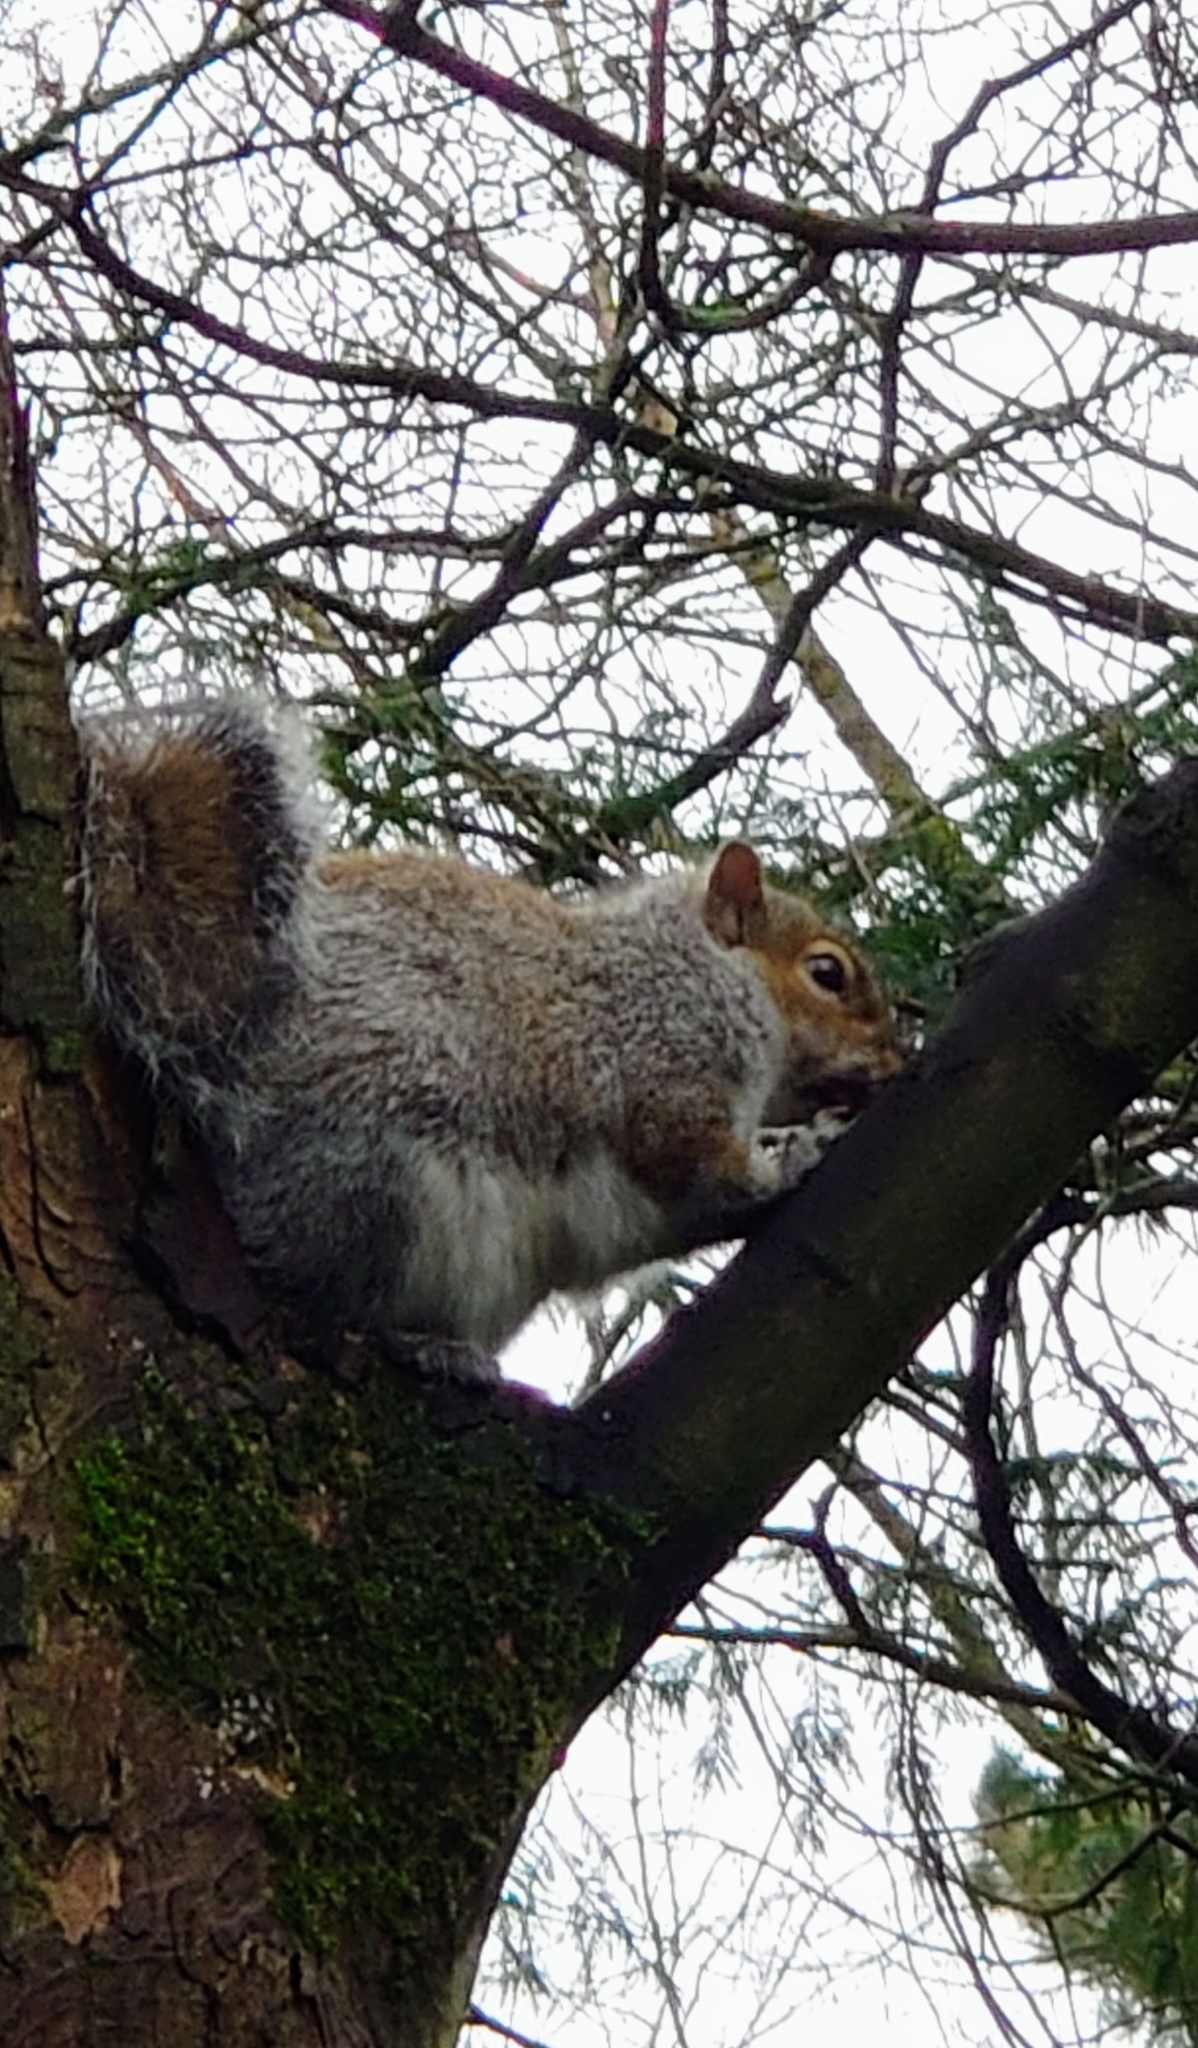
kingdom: Animalia
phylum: Chordata
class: Mammalia
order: Rodentia
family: Sciuridae
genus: Sciurus
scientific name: Sciurus carolinensis
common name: Eastern gray squirrel
